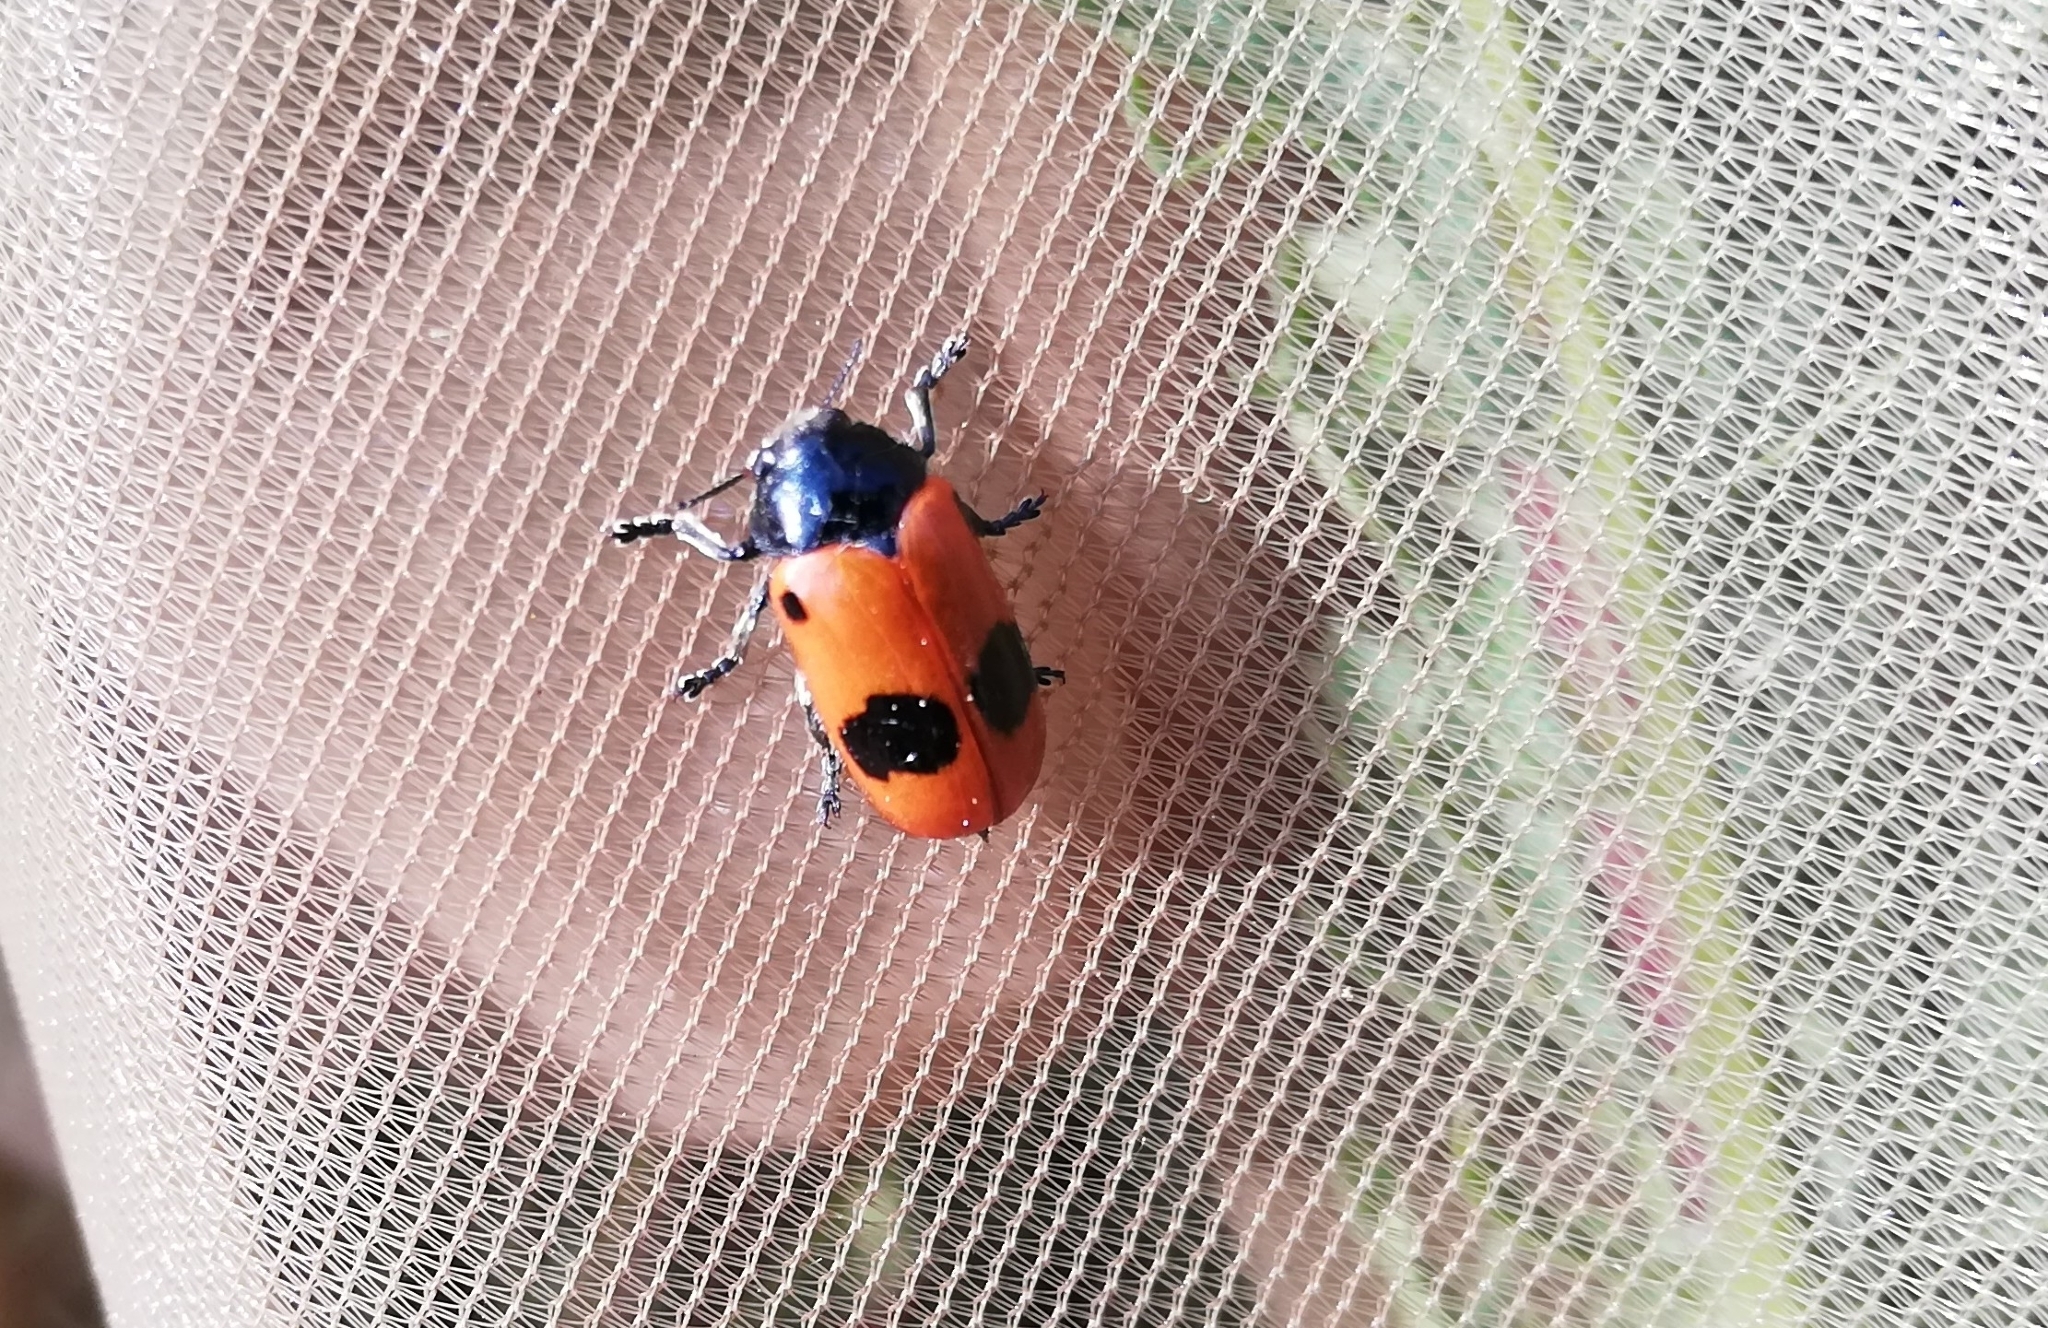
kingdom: Animalia
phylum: Arthropoda
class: Insecta
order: Coleoptera
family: Chrysomelidae
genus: Clytra
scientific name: Clytra laeviuscula
